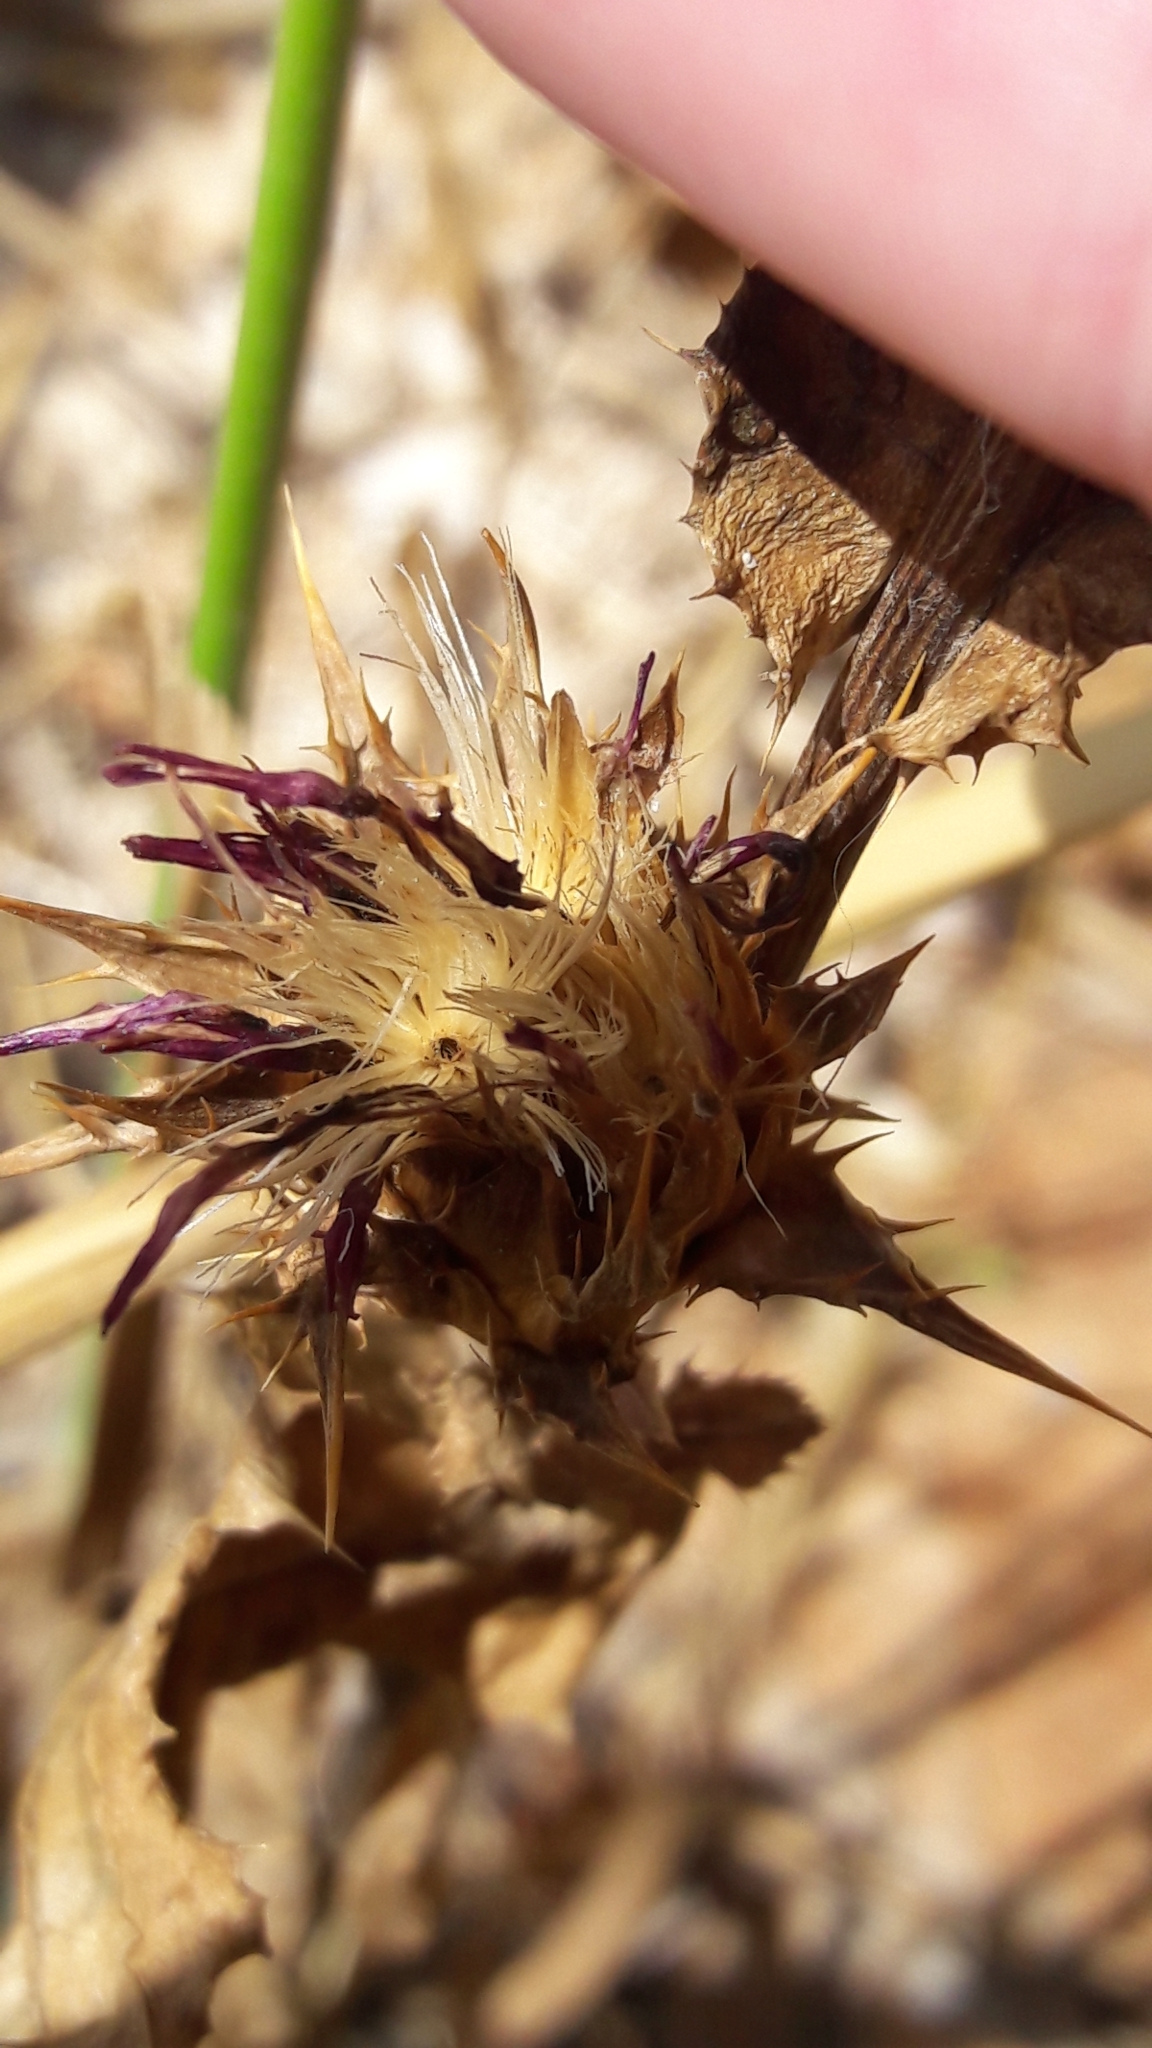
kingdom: Plantae
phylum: Tracheophyta
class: Magnoliopsida
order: Asterales
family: Asteraceae
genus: Silybum
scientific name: Silybum marianum
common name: Milk thistle
